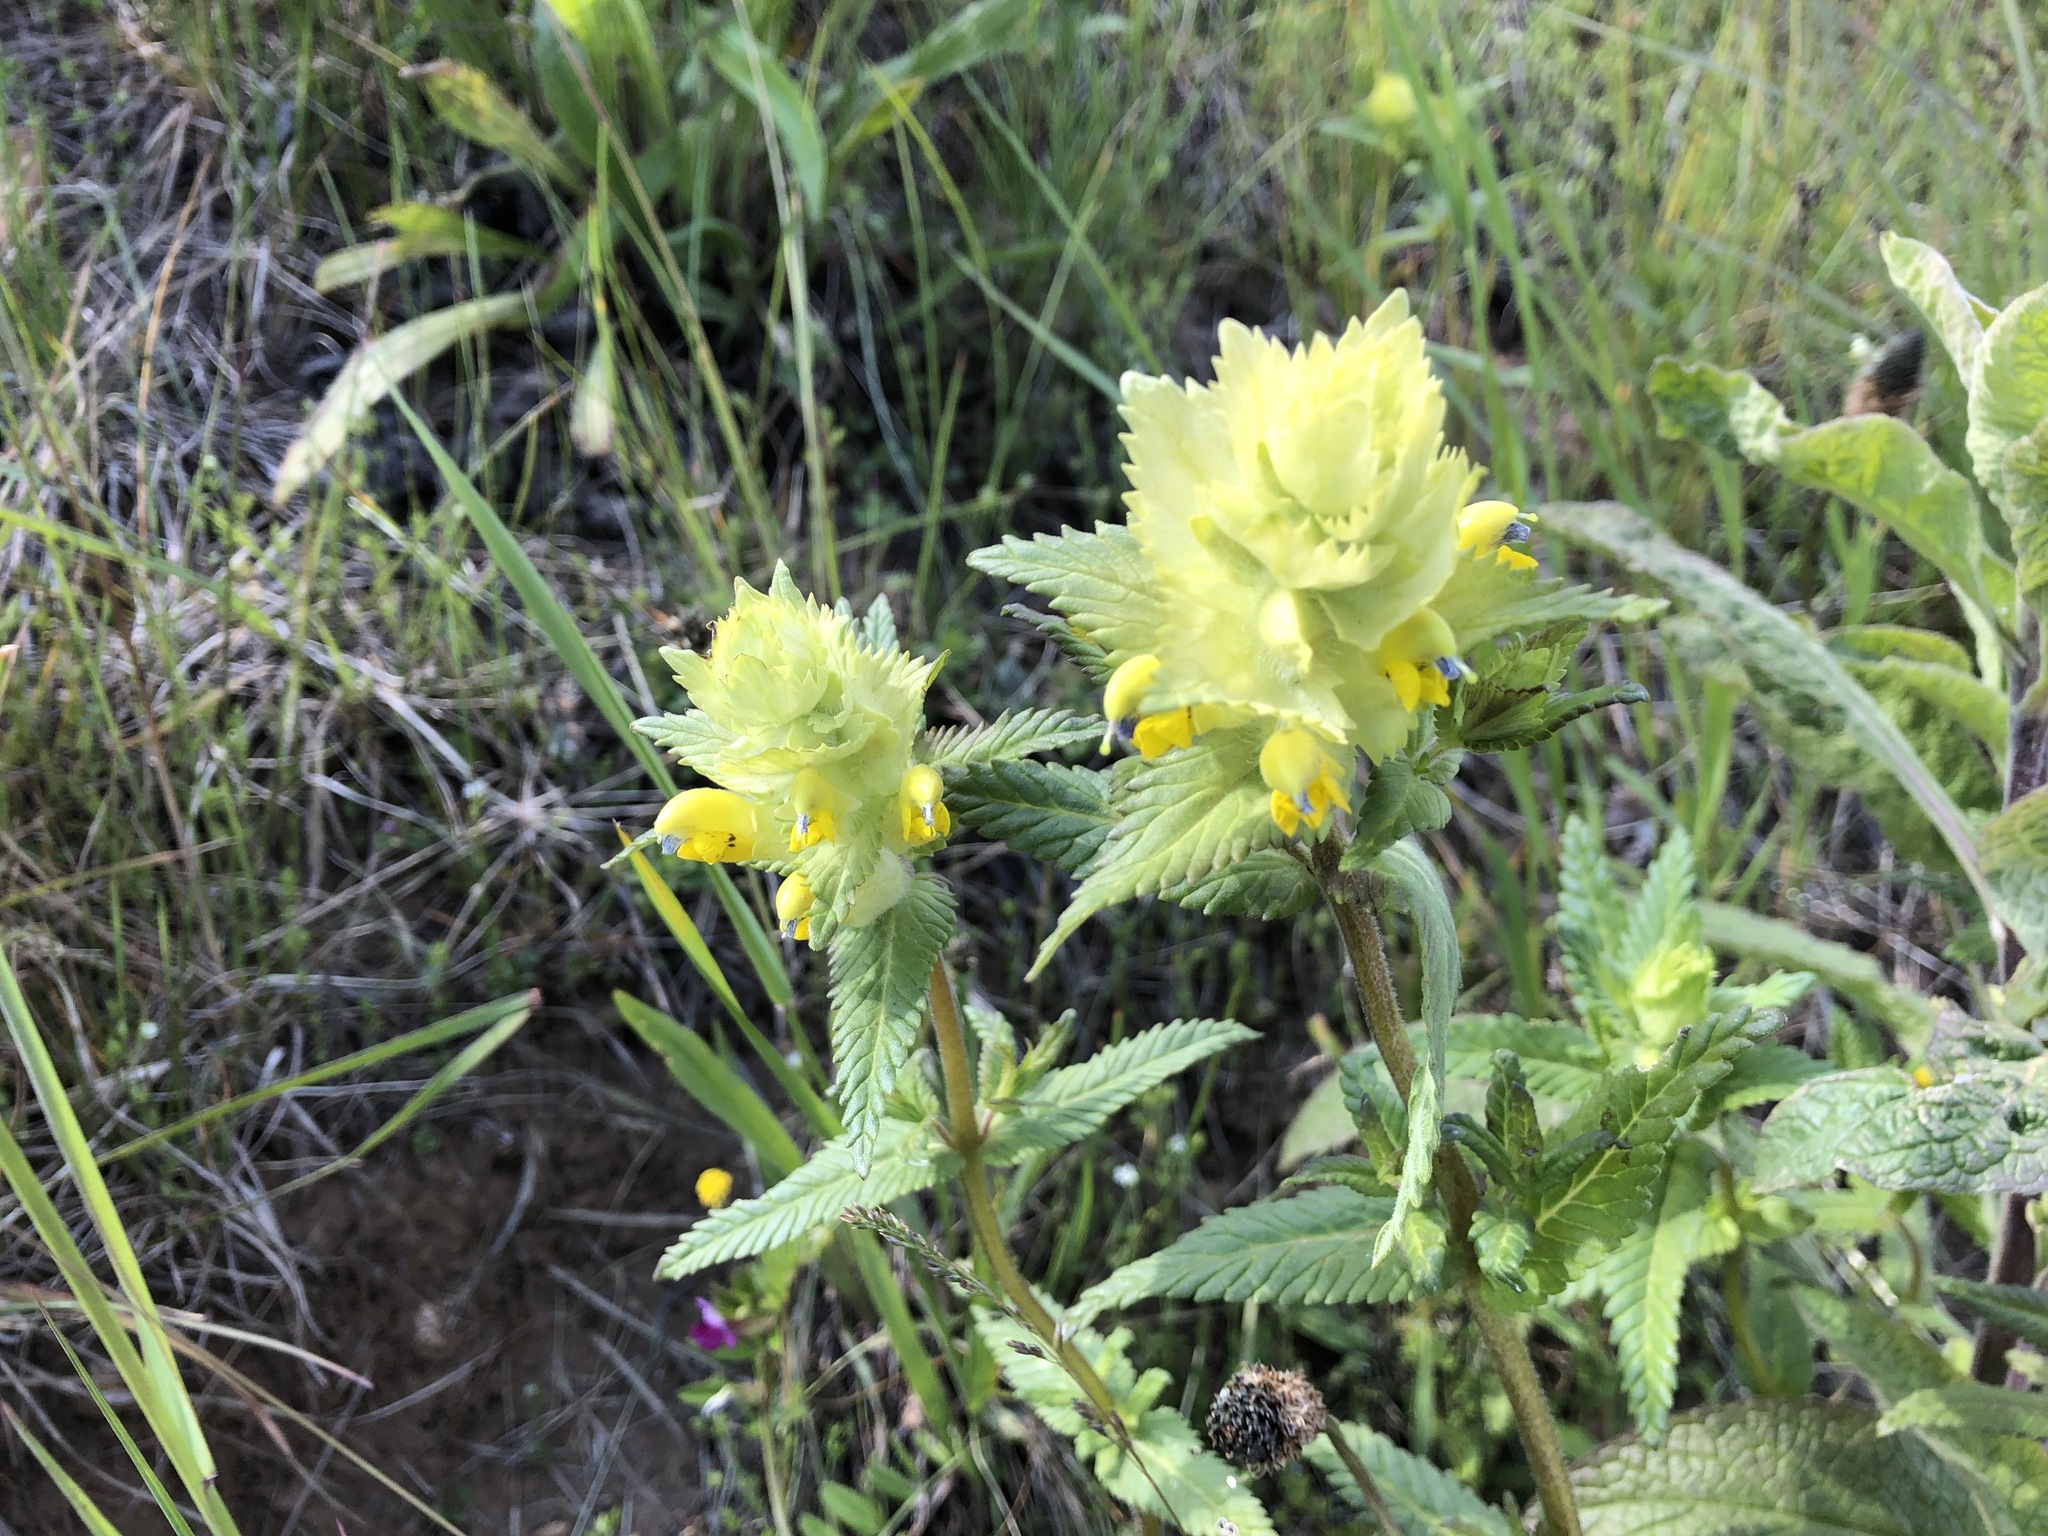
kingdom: Plantae
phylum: Tracheophyta
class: Magnoliopsida
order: Lamiales
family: Orobanchaceae
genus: Rhinanthus
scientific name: Rhinanthus alectorolophus
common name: Greater yellow-rattle
